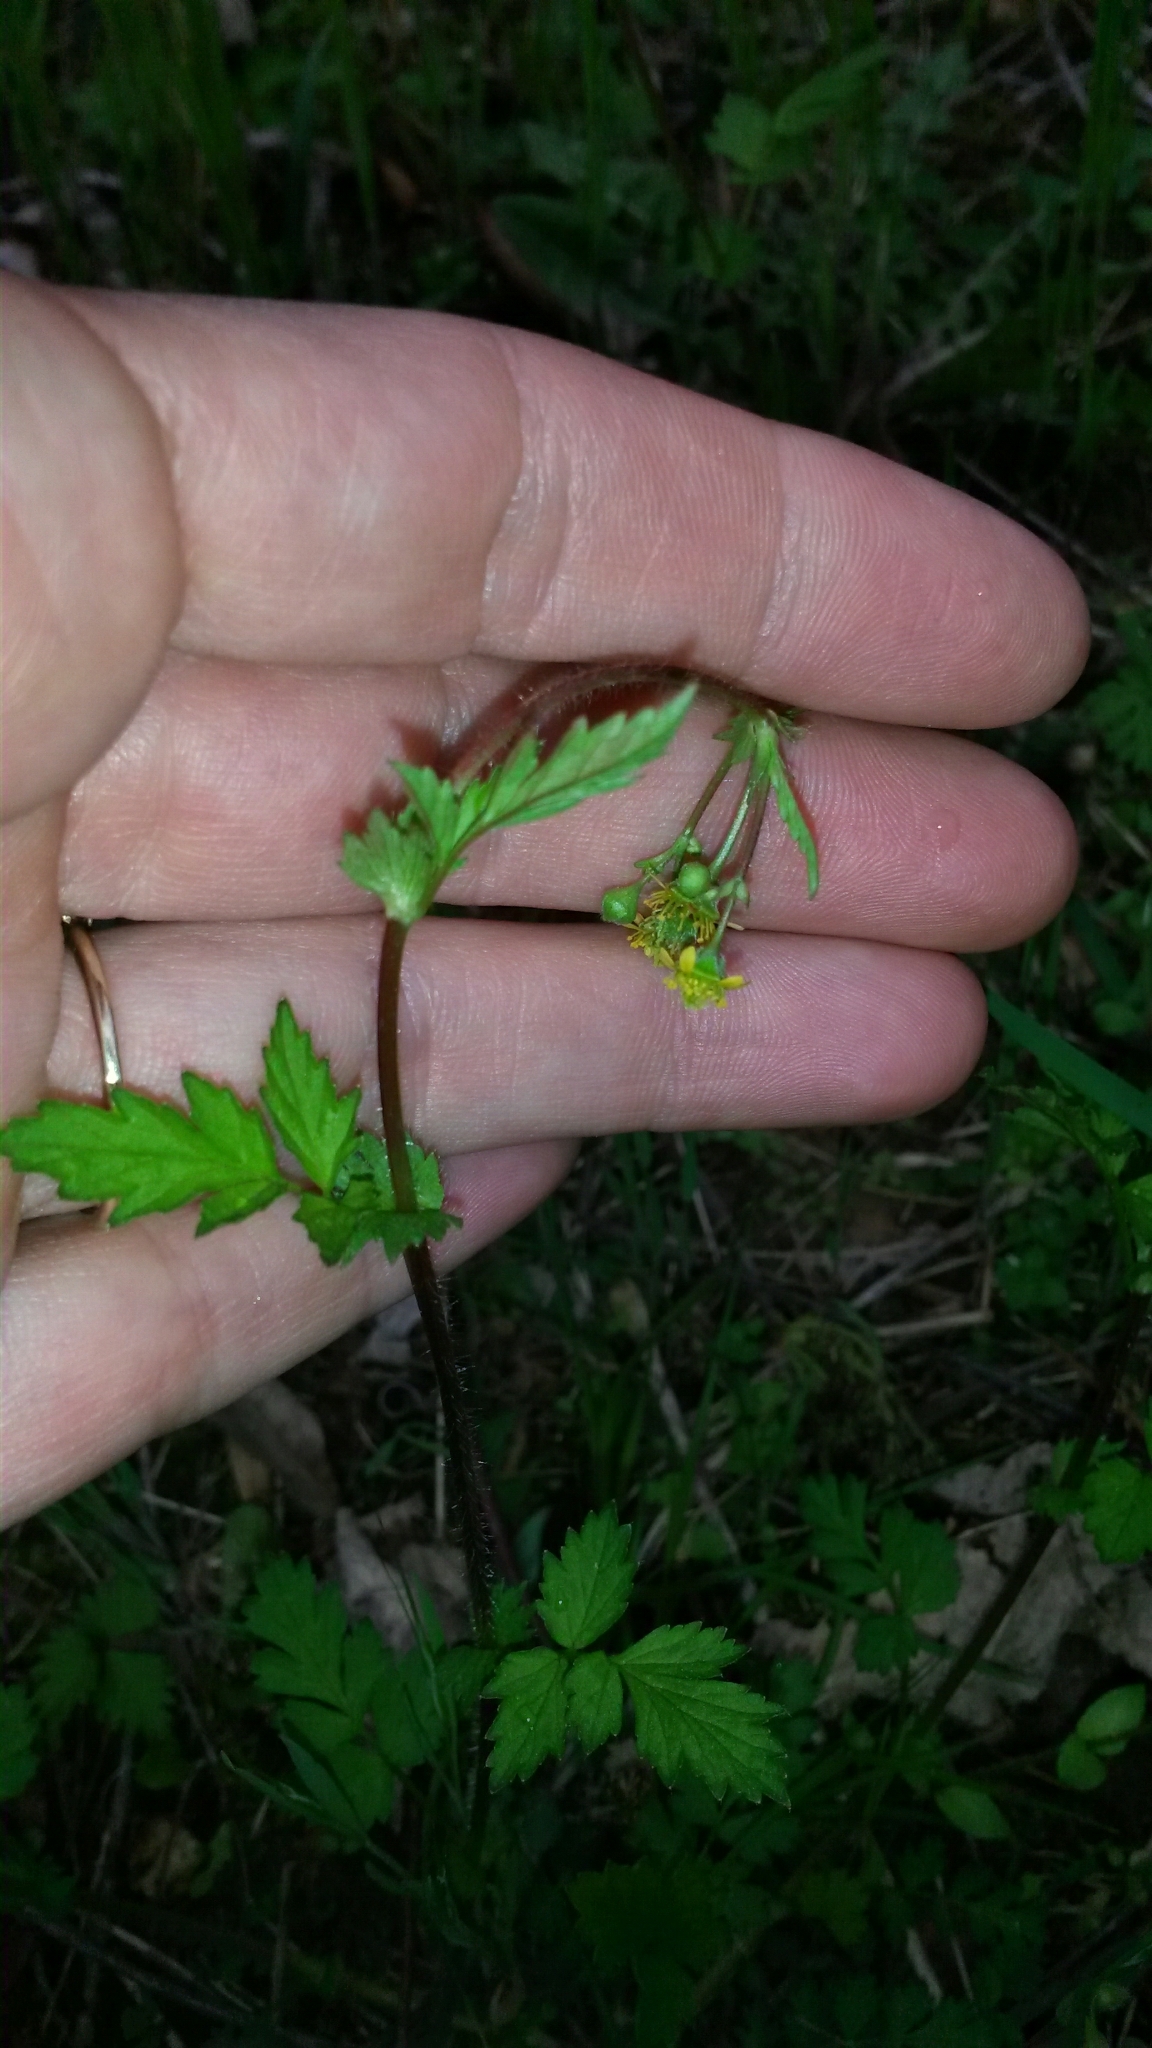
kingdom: Plantae
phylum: Tracheophyta
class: Magnoliopsida
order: Rosales
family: Rosaceae
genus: Geum
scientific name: Geum vernum
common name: Spring avens
